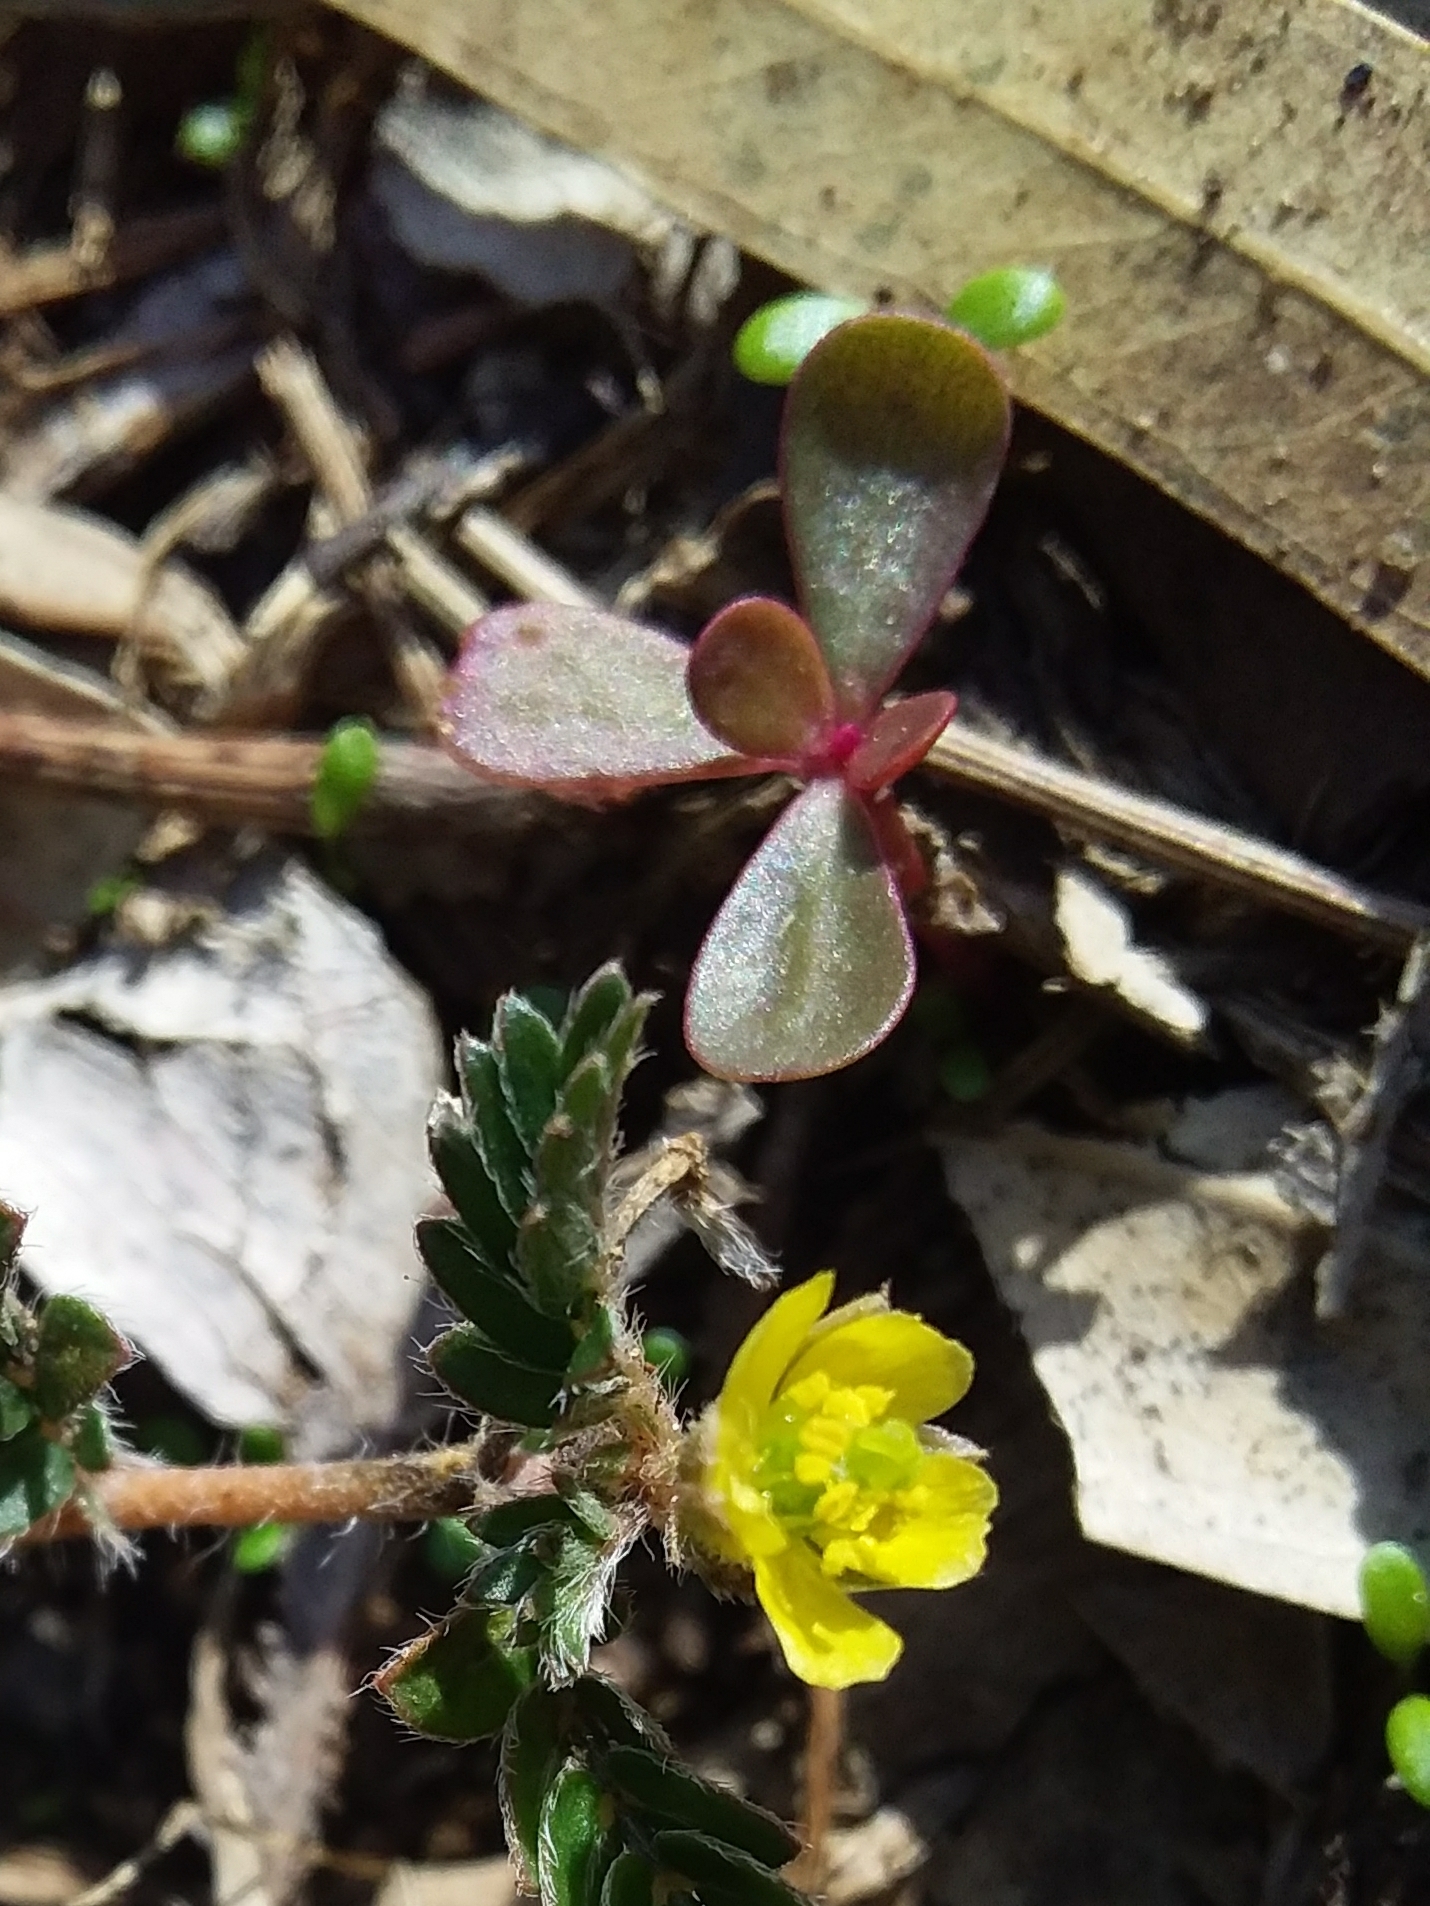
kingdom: Plantae
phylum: Tracheophyta
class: Magnoliopsida
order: Caryophyllales
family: Portulacaceae
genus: Portulaca
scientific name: Portulaca oleracea
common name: Common purslane
